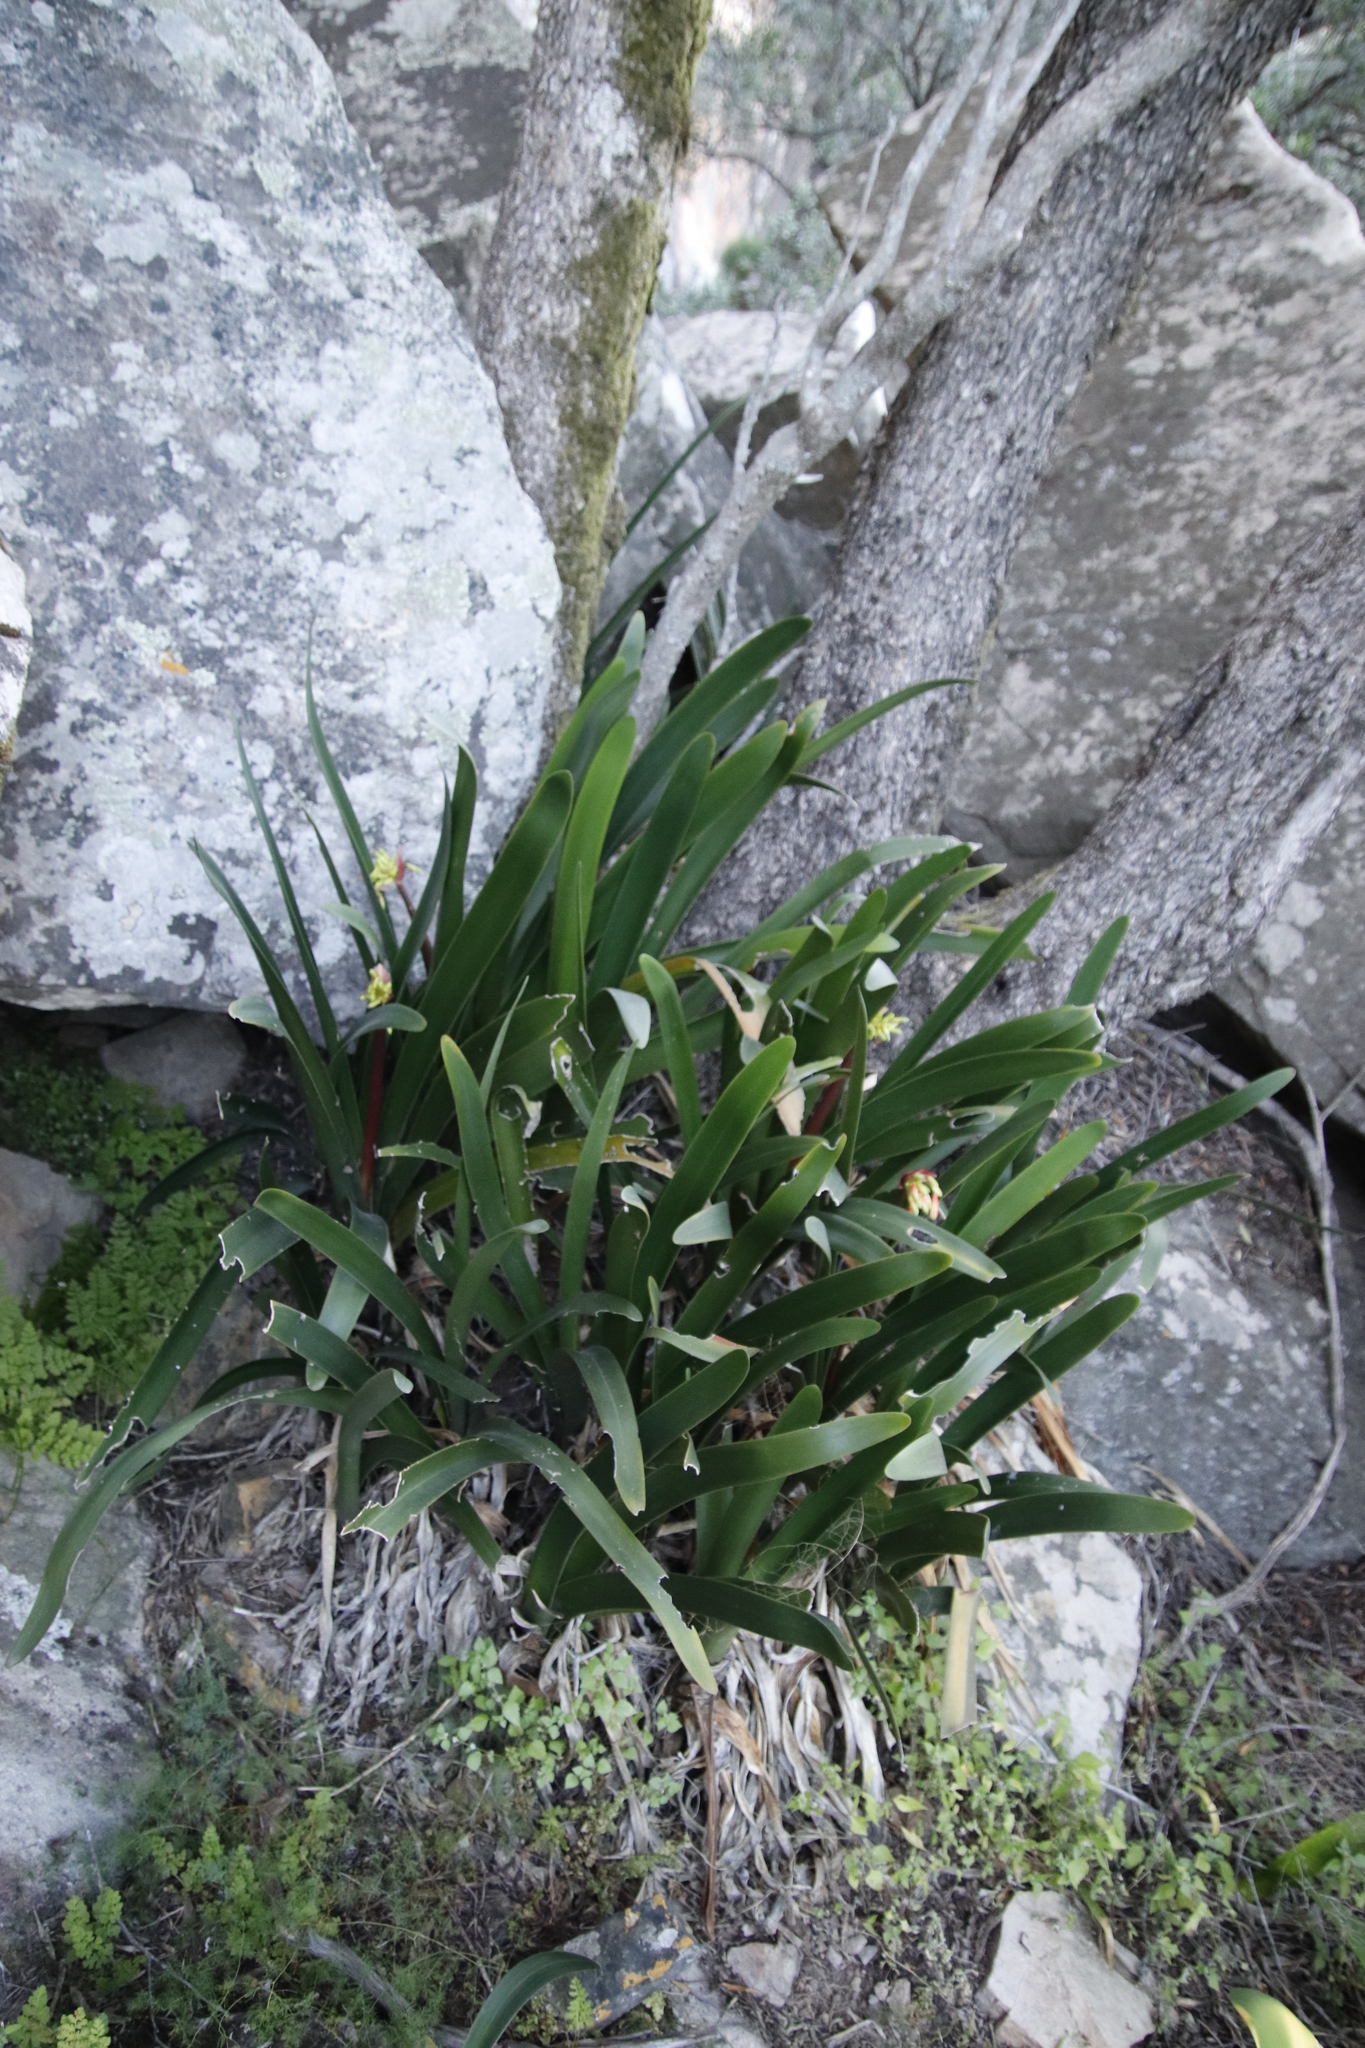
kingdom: Plantae
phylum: Tracheophyta
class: Liliopsida
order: Asparagales
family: Amaryllidaceae
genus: Clivia
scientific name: Clivia mirabilis
